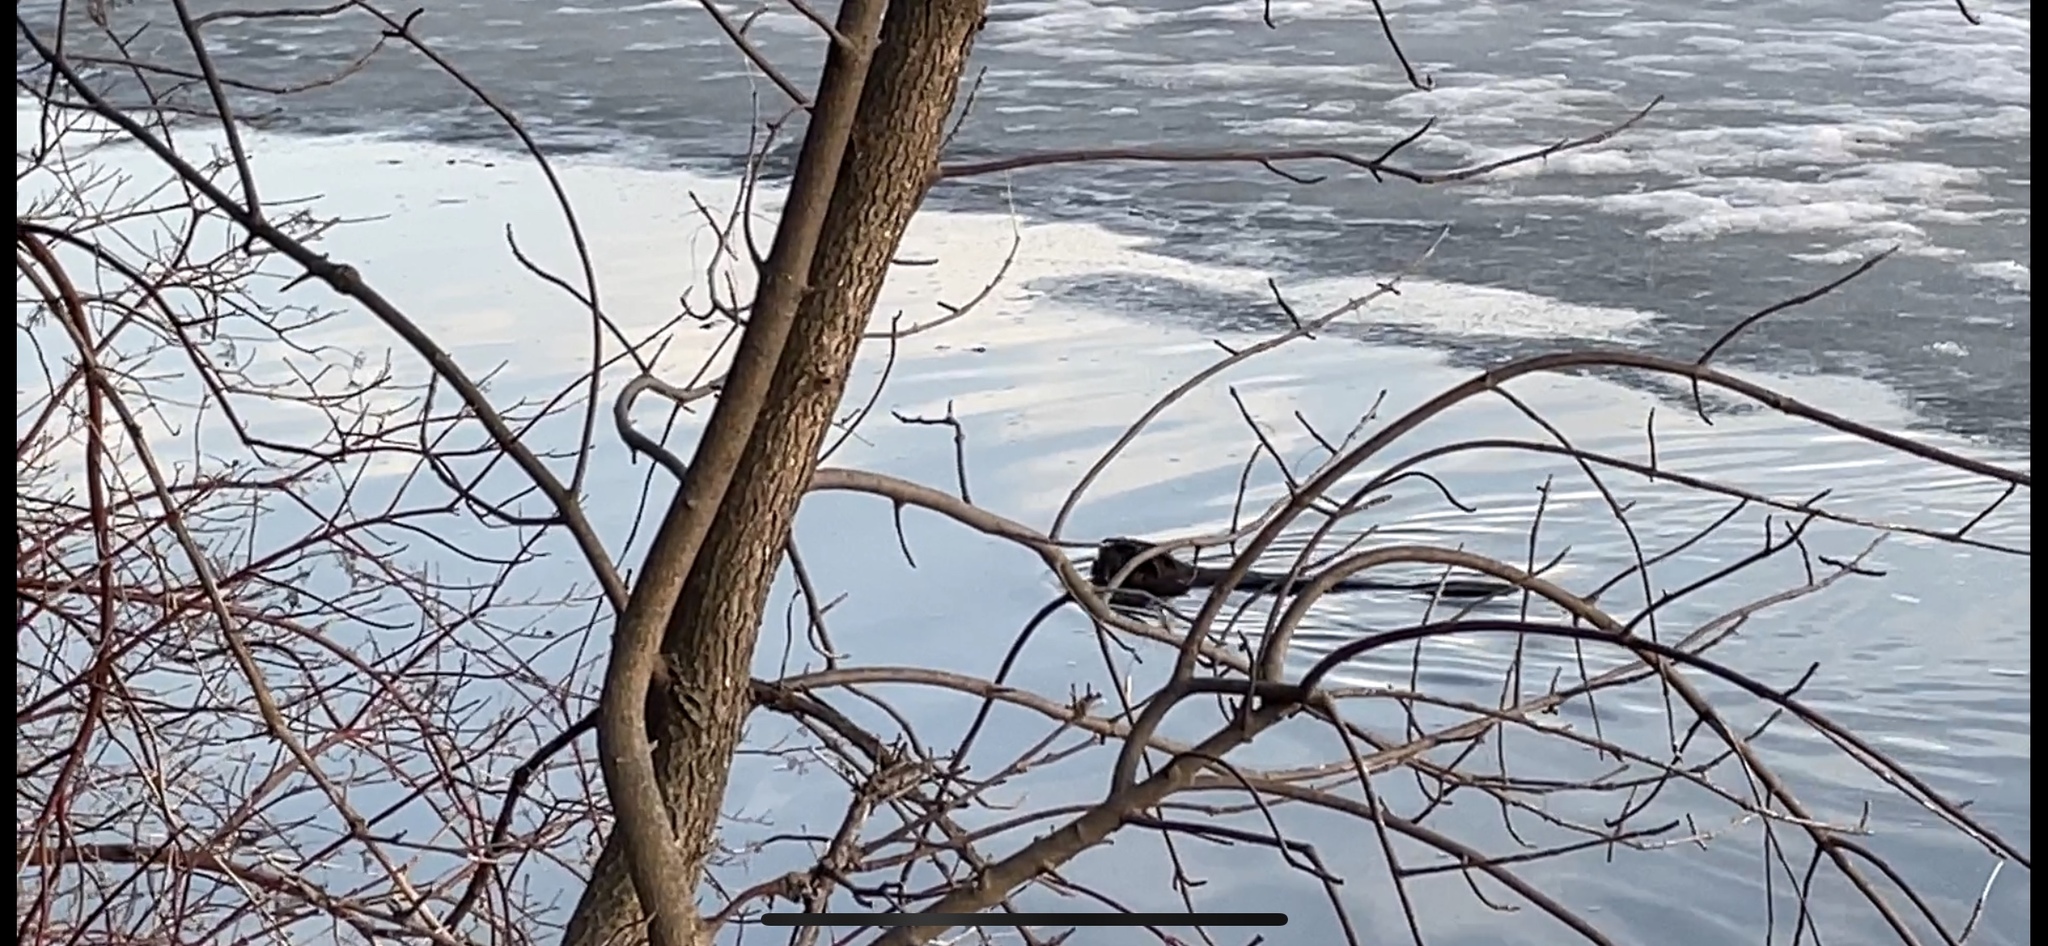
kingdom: Animalia
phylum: Chordata
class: Mammalia
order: Rodentia
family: Castoridae
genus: Castor
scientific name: Castor canadensis
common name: American beaver
